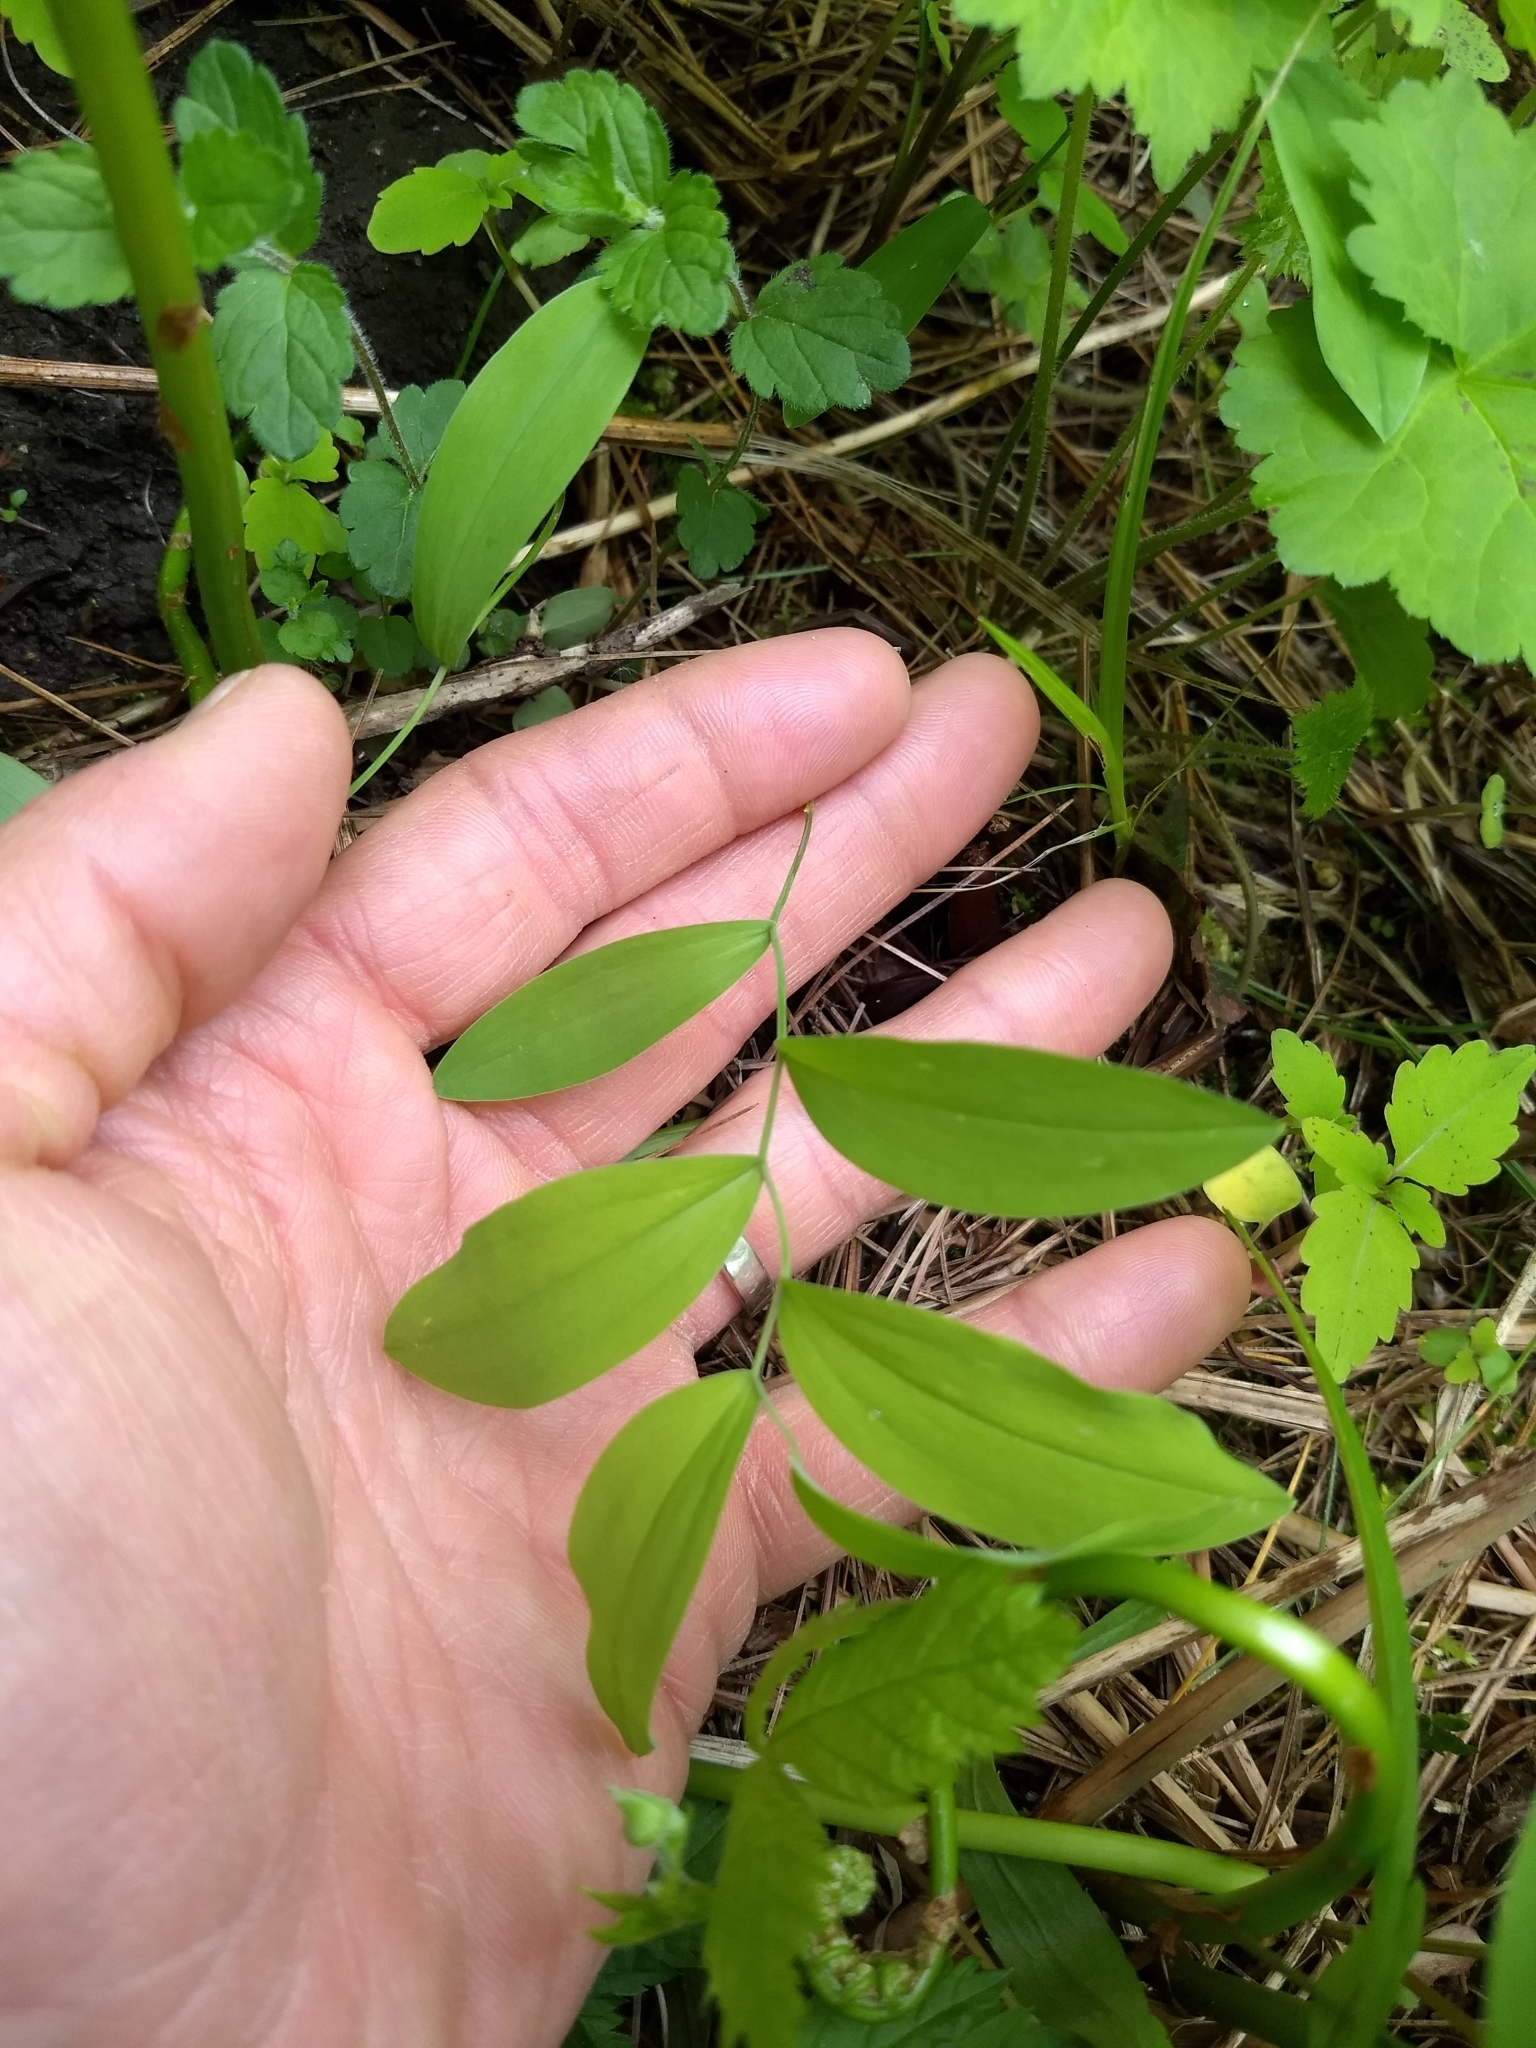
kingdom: Plantae
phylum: Tracheophyta
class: Liliopsida
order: Liliales
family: Colchicaceae
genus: Uvularia
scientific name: Uvularia sessilifolia
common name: Straw-lily
